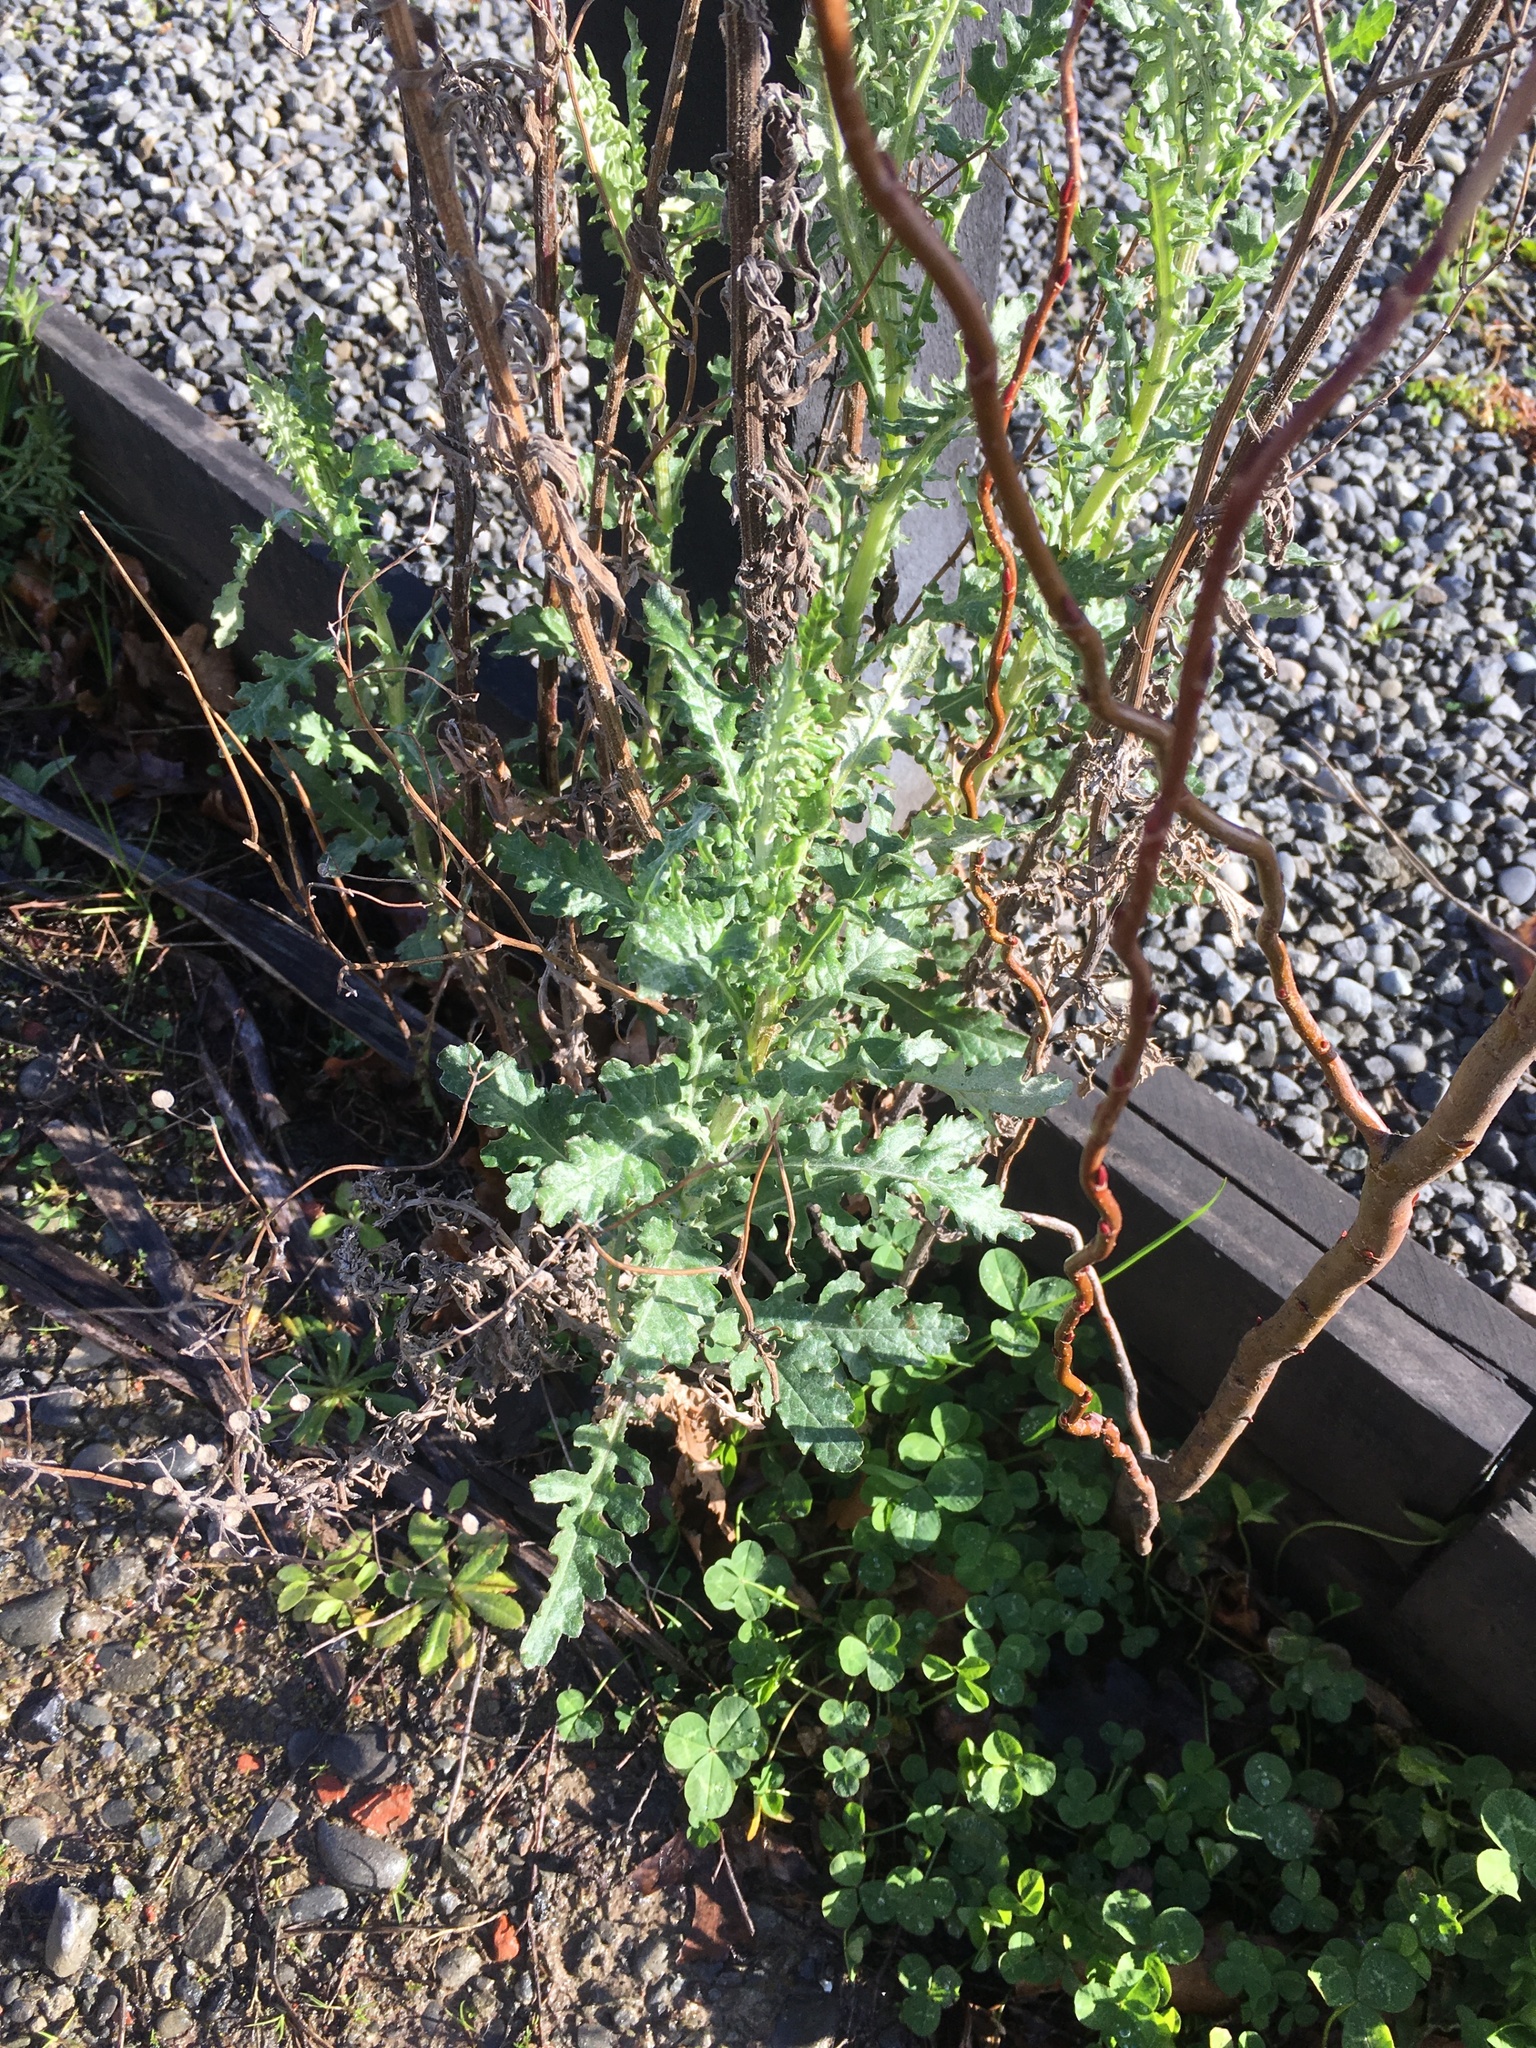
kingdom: Plantae
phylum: Tracheophyta
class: Magnoliopsida
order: Asterales
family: Asteraceae
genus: Senecio
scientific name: Senecio glomeratus
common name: Cutleaf burnweed
